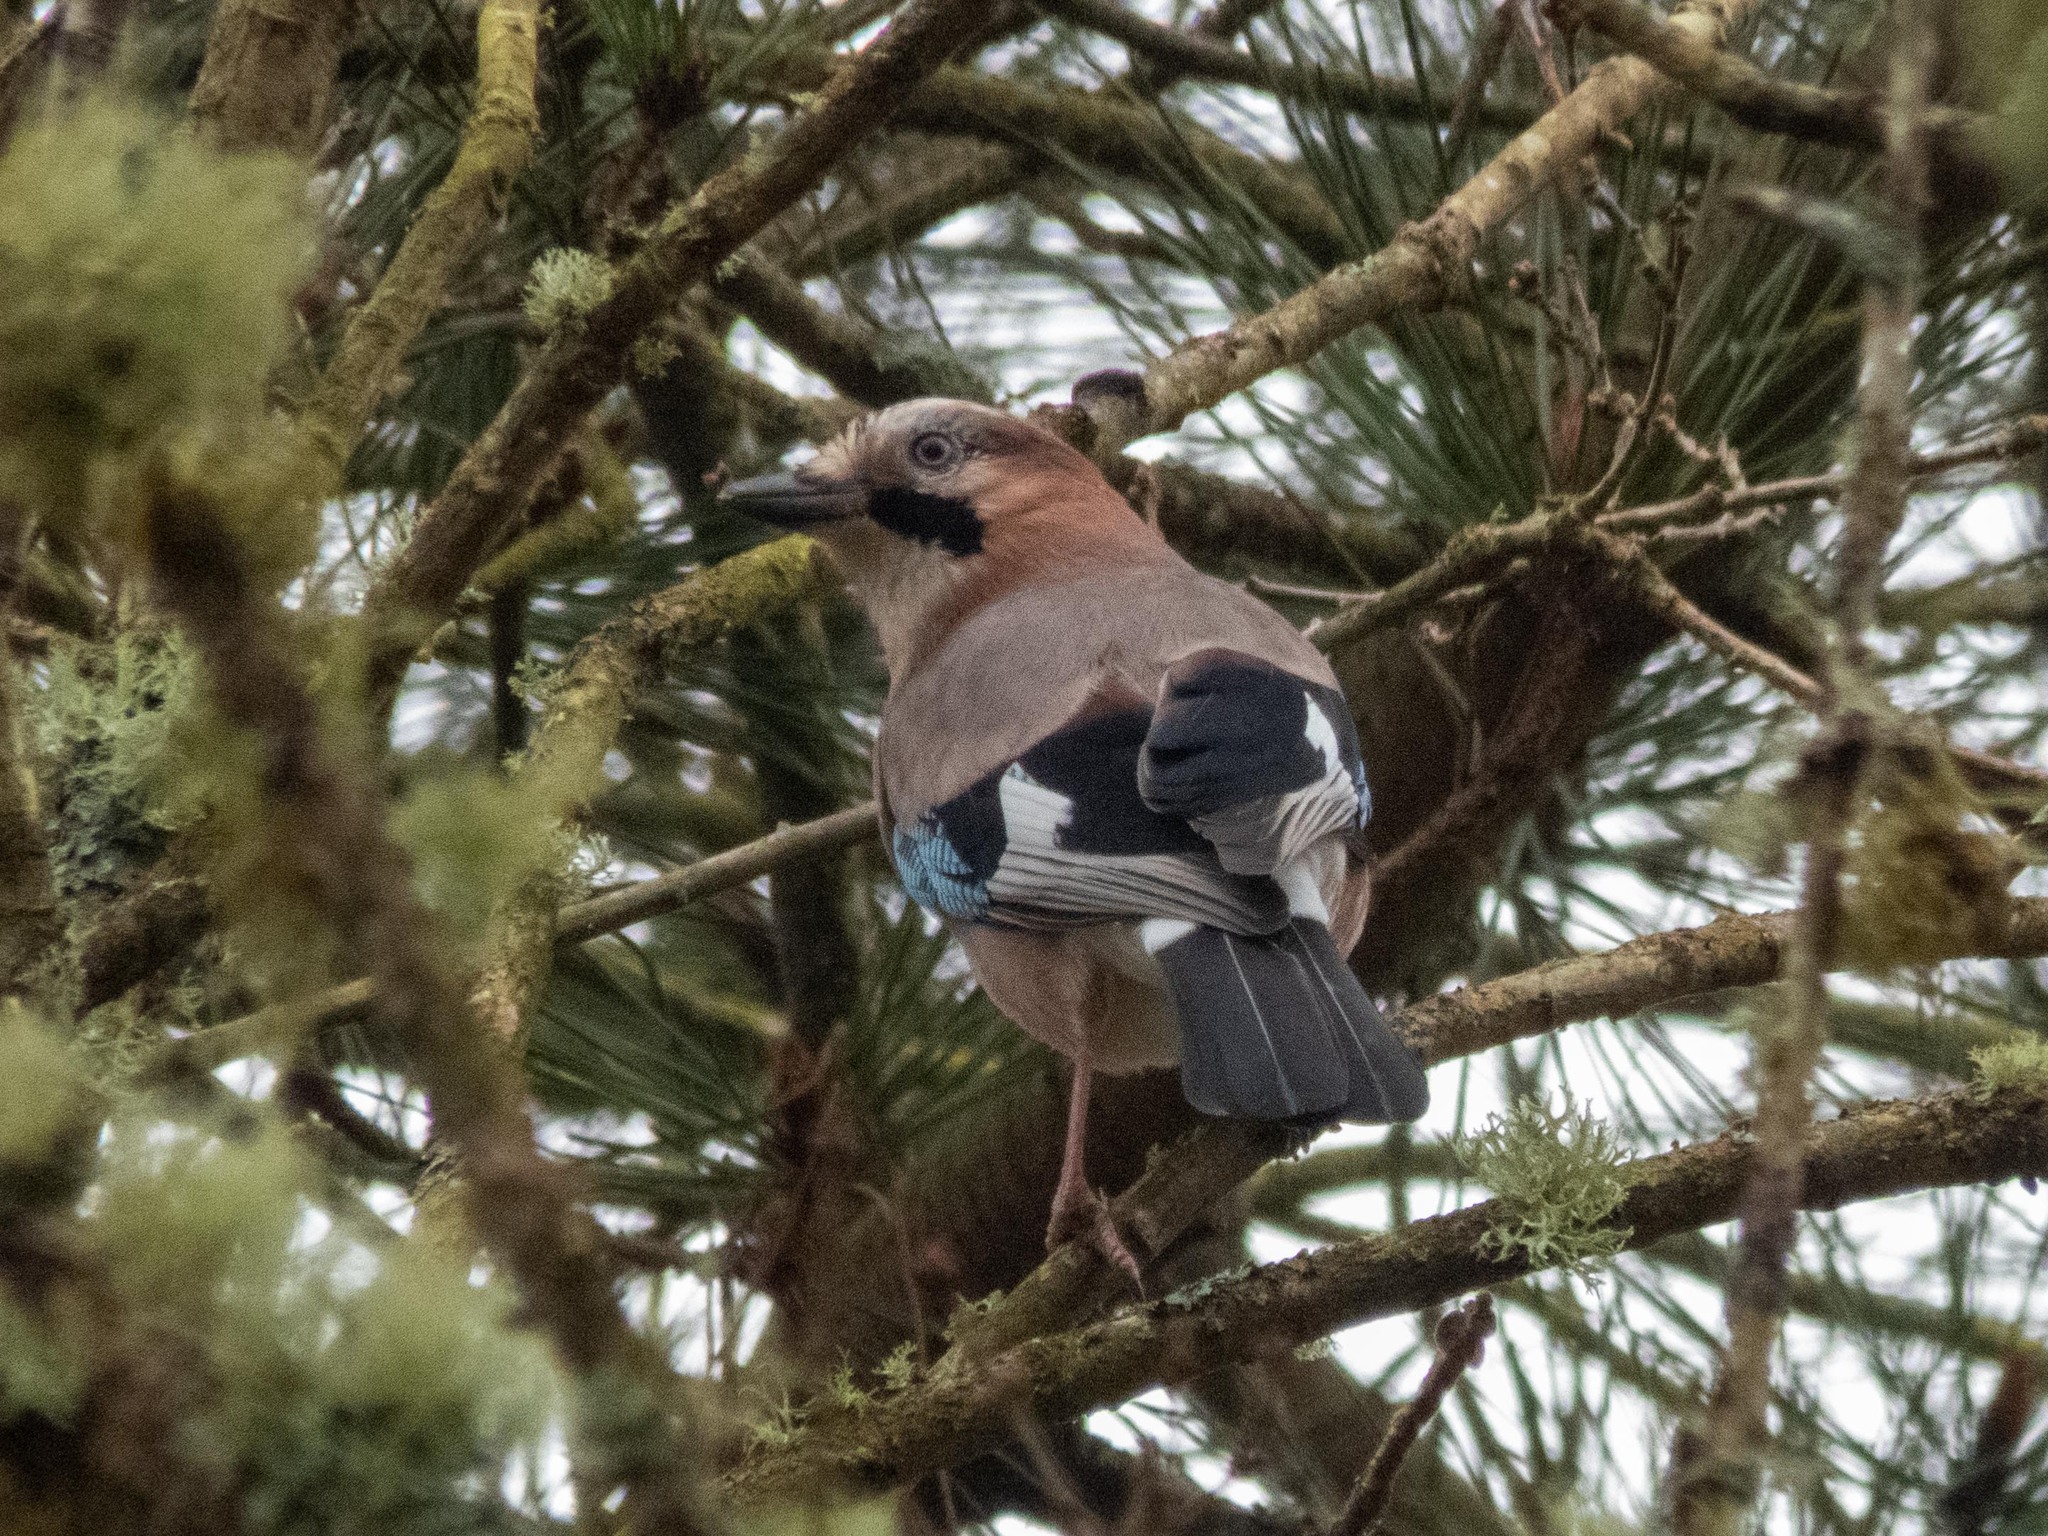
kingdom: Animalia
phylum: Chordata
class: Aves
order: Passeriformes
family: Corvidae
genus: Garrulus
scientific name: Garrulus glandarius
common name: Eurasian jay
